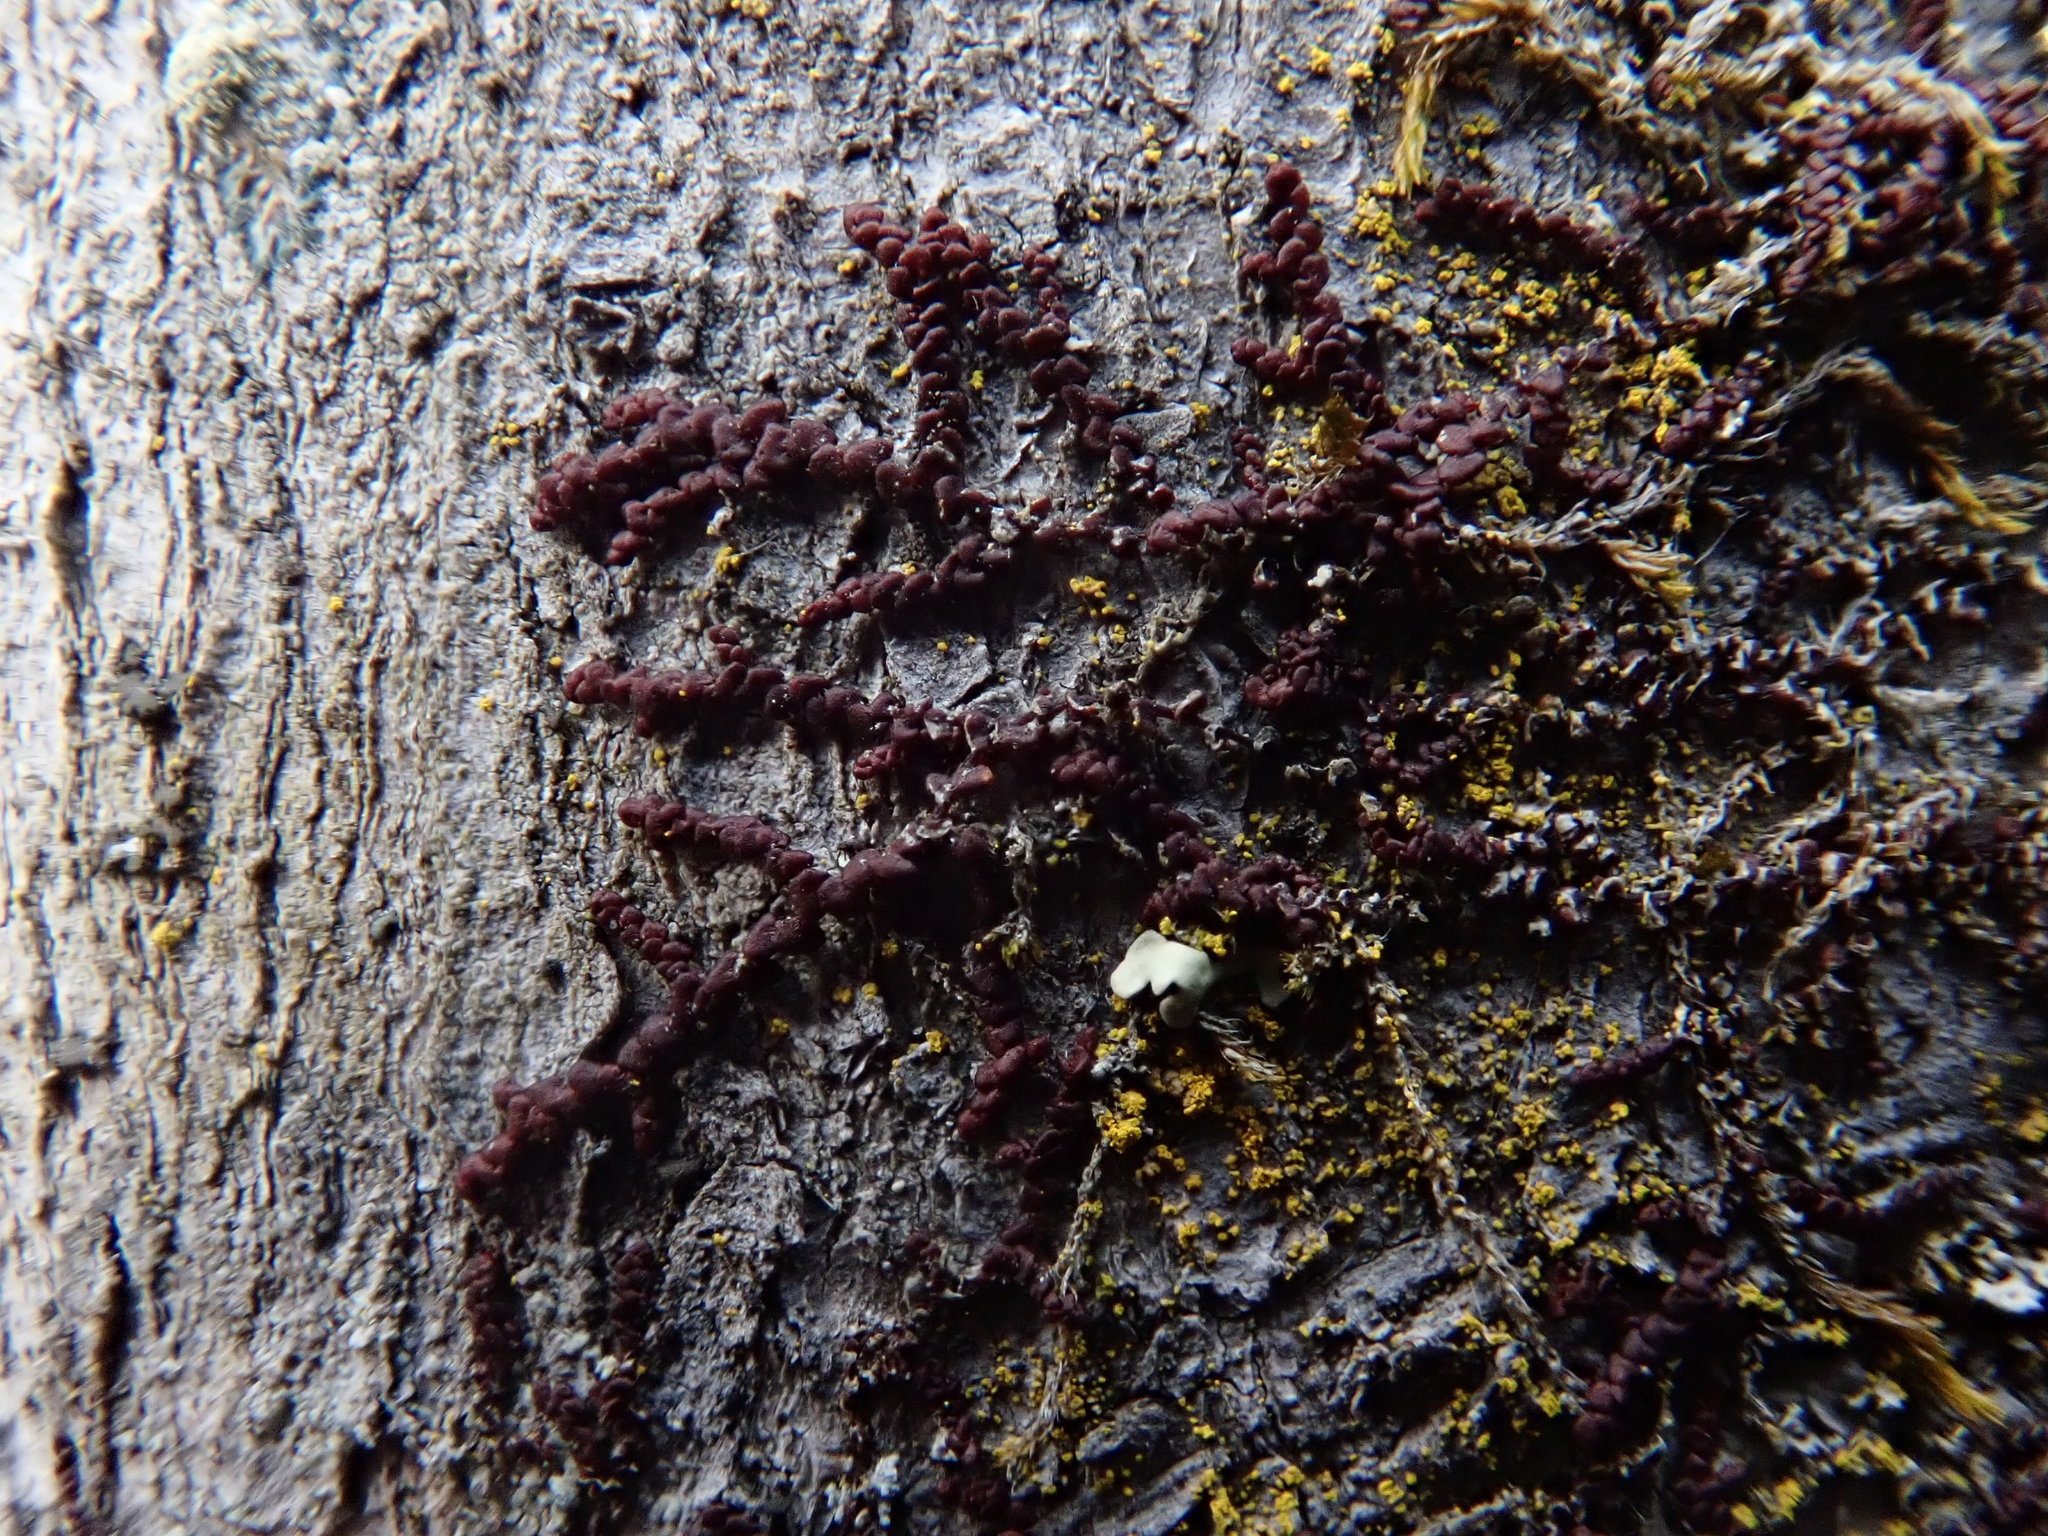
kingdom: Plantae
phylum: Marchantiophyta
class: Jungermanniopsida
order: Porellales
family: Frullaniaceae
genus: Frullania
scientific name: Frullania
